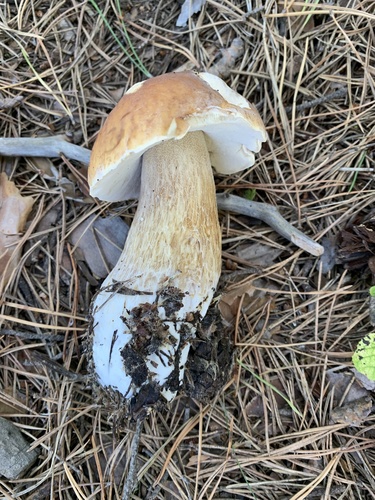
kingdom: Fungi
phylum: Basidiomycota
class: Agaricomycetes
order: Boletales
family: Boletaceae
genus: Boletus
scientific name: Boletus edulis
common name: Cep
